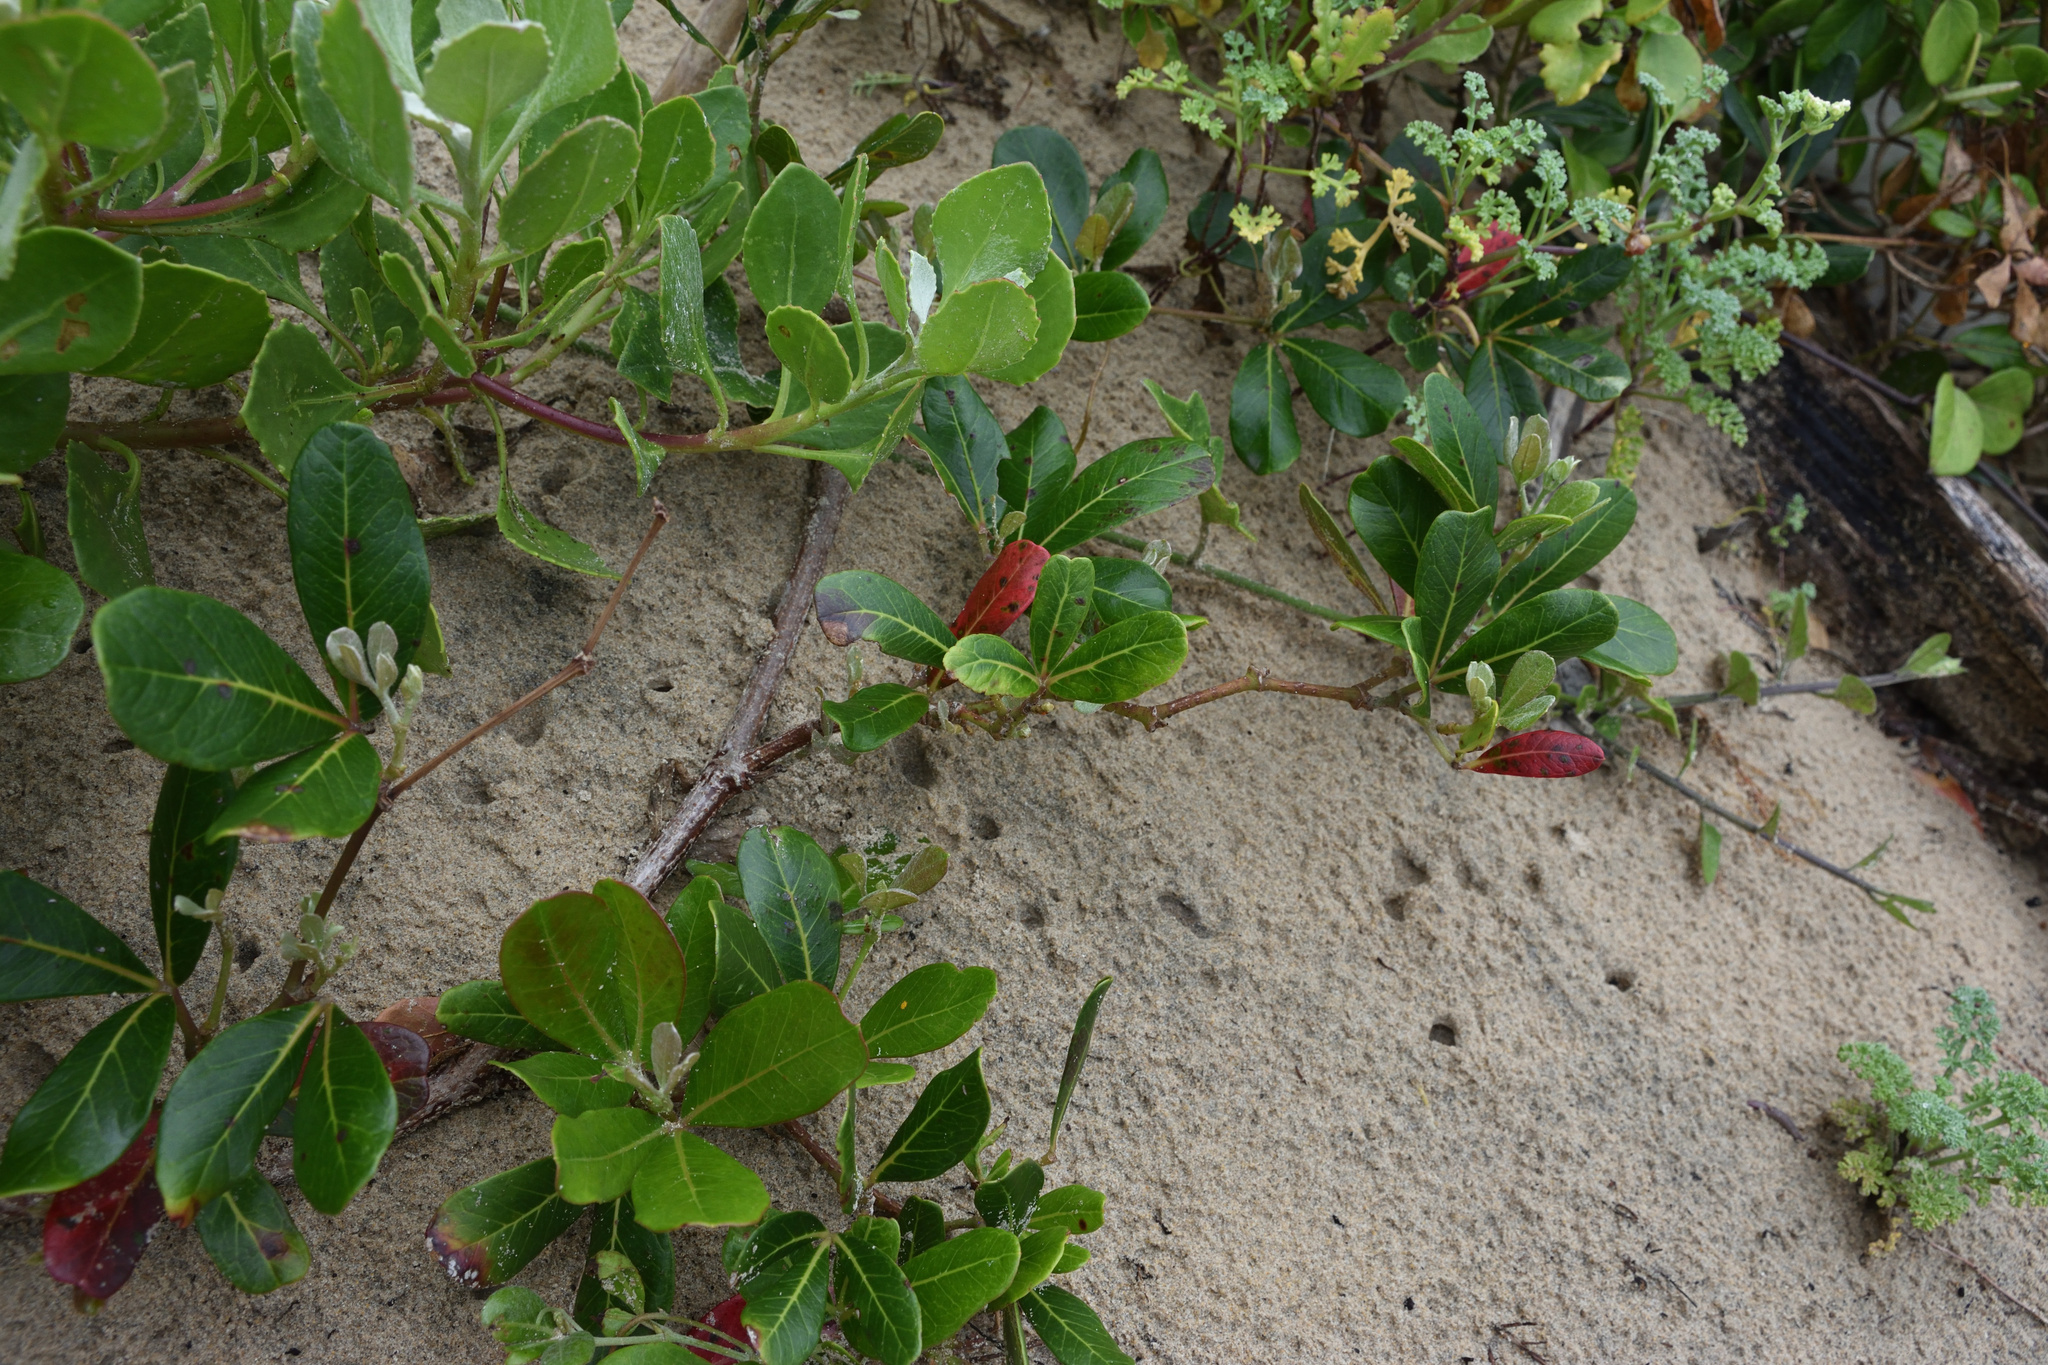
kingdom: Plantae
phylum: Tracheophyta
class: Magnoliopsida
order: Vitales
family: Vitaceae
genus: Rhoicissus
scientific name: Rhoicissus digitata
